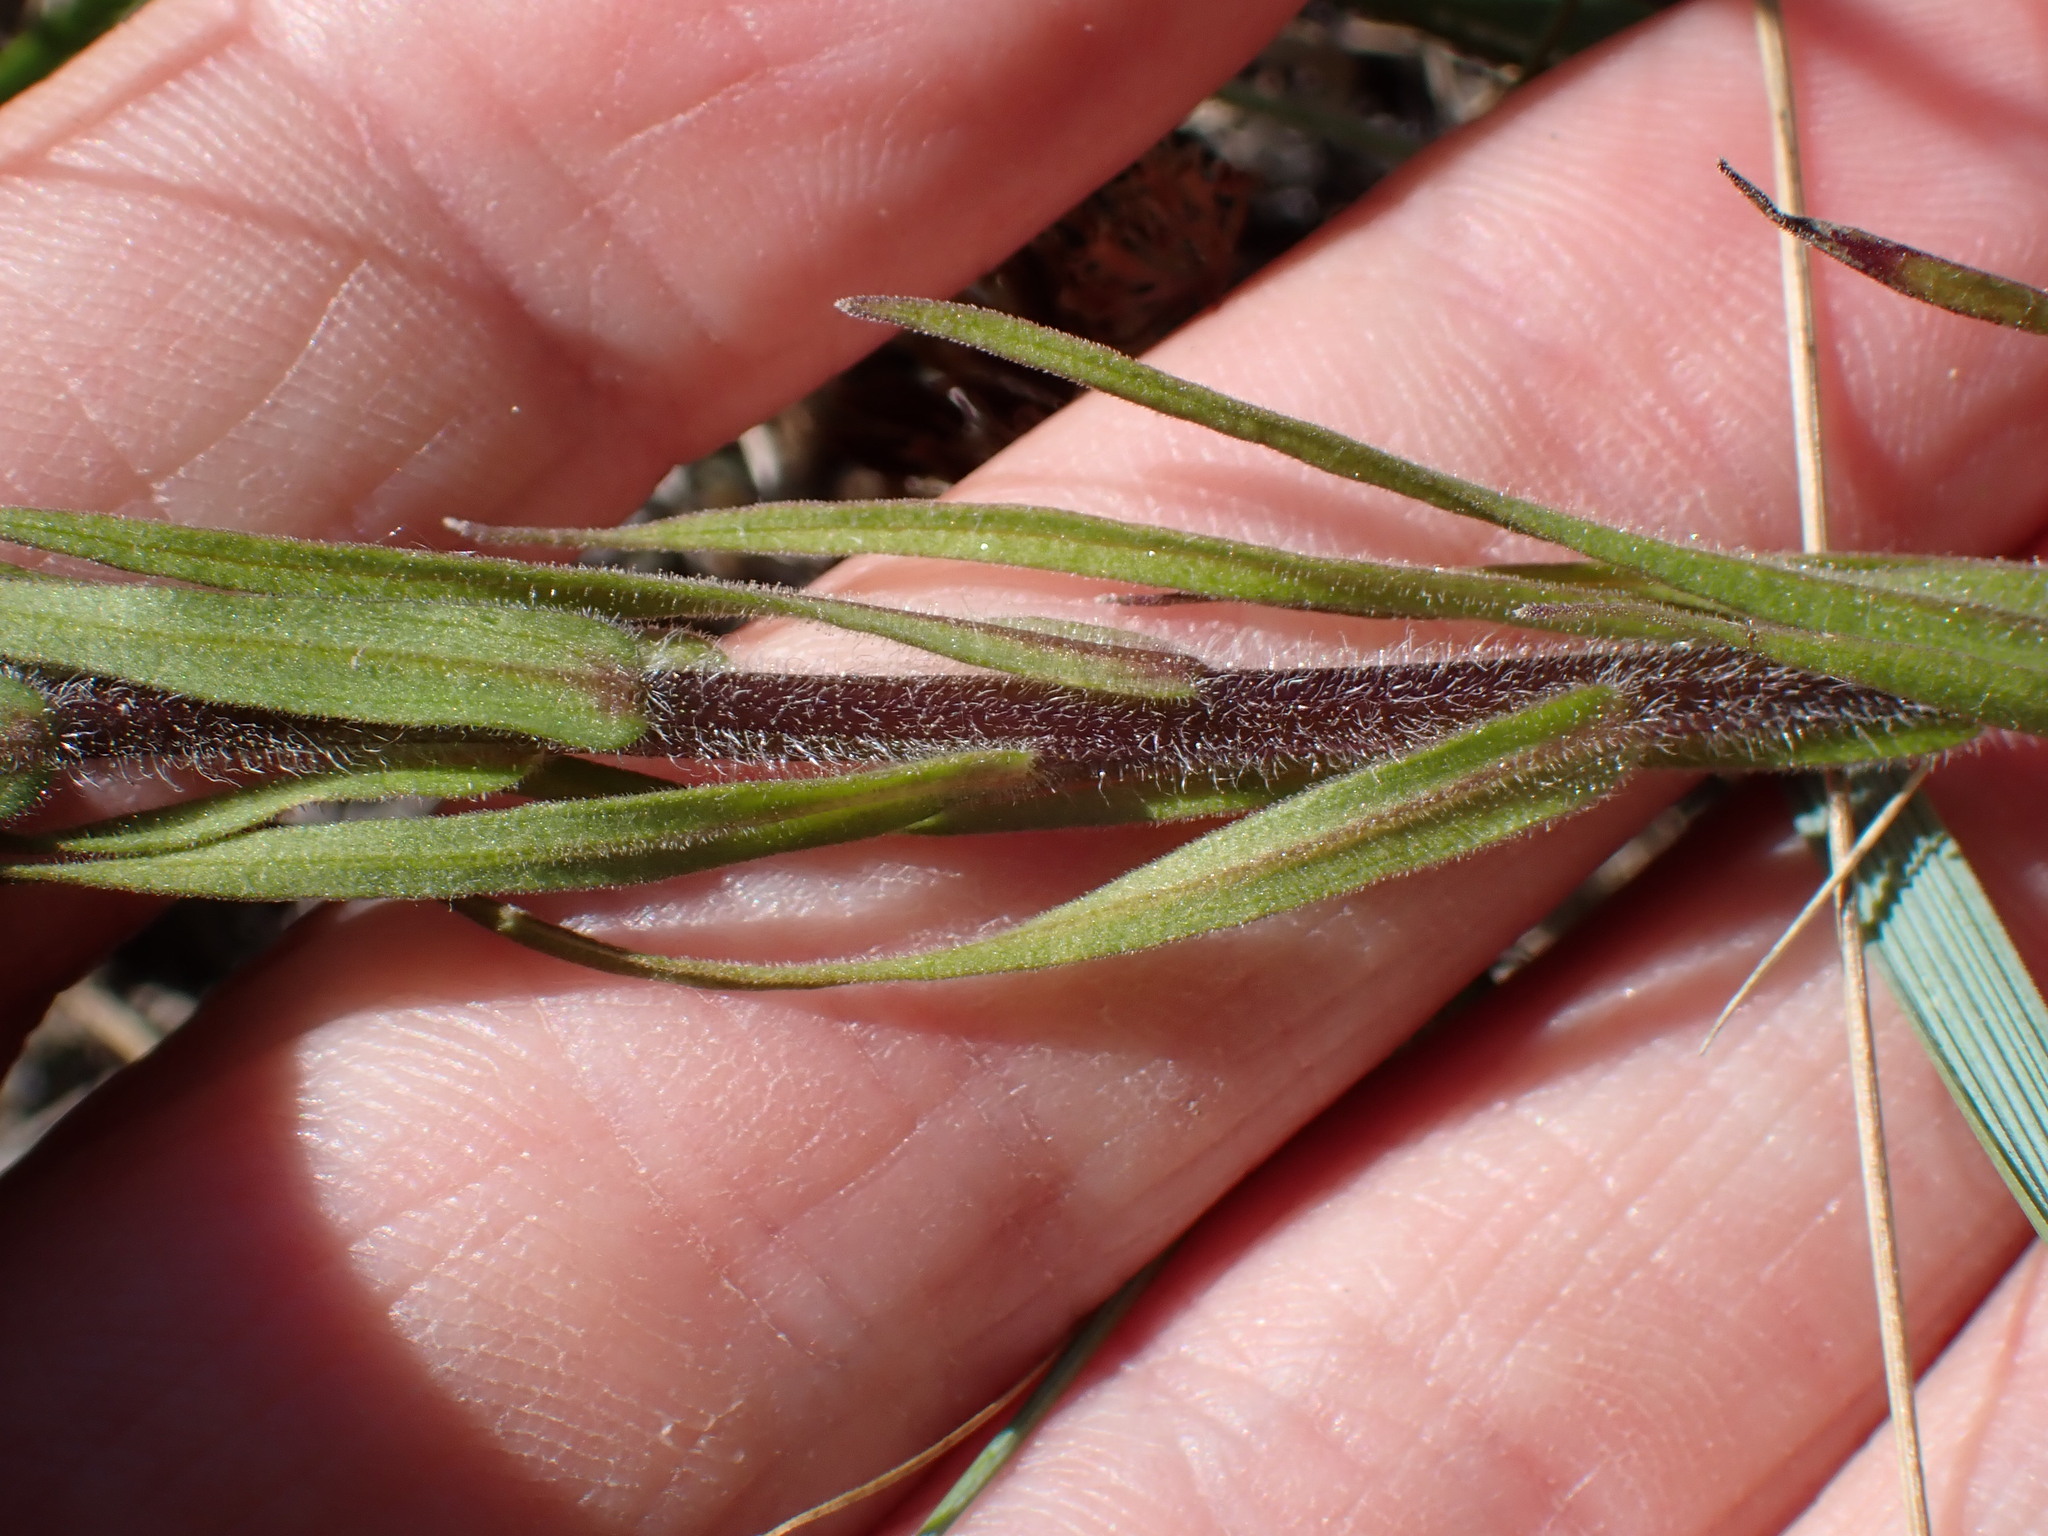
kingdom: Plantae
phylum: Tracheophyta
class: Magnoliopsida
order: Lamiales
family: Orobanchaceae
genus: Orthocarpus
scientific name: Orthocarpus luteus
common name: Golden-tongue owl's-clover
